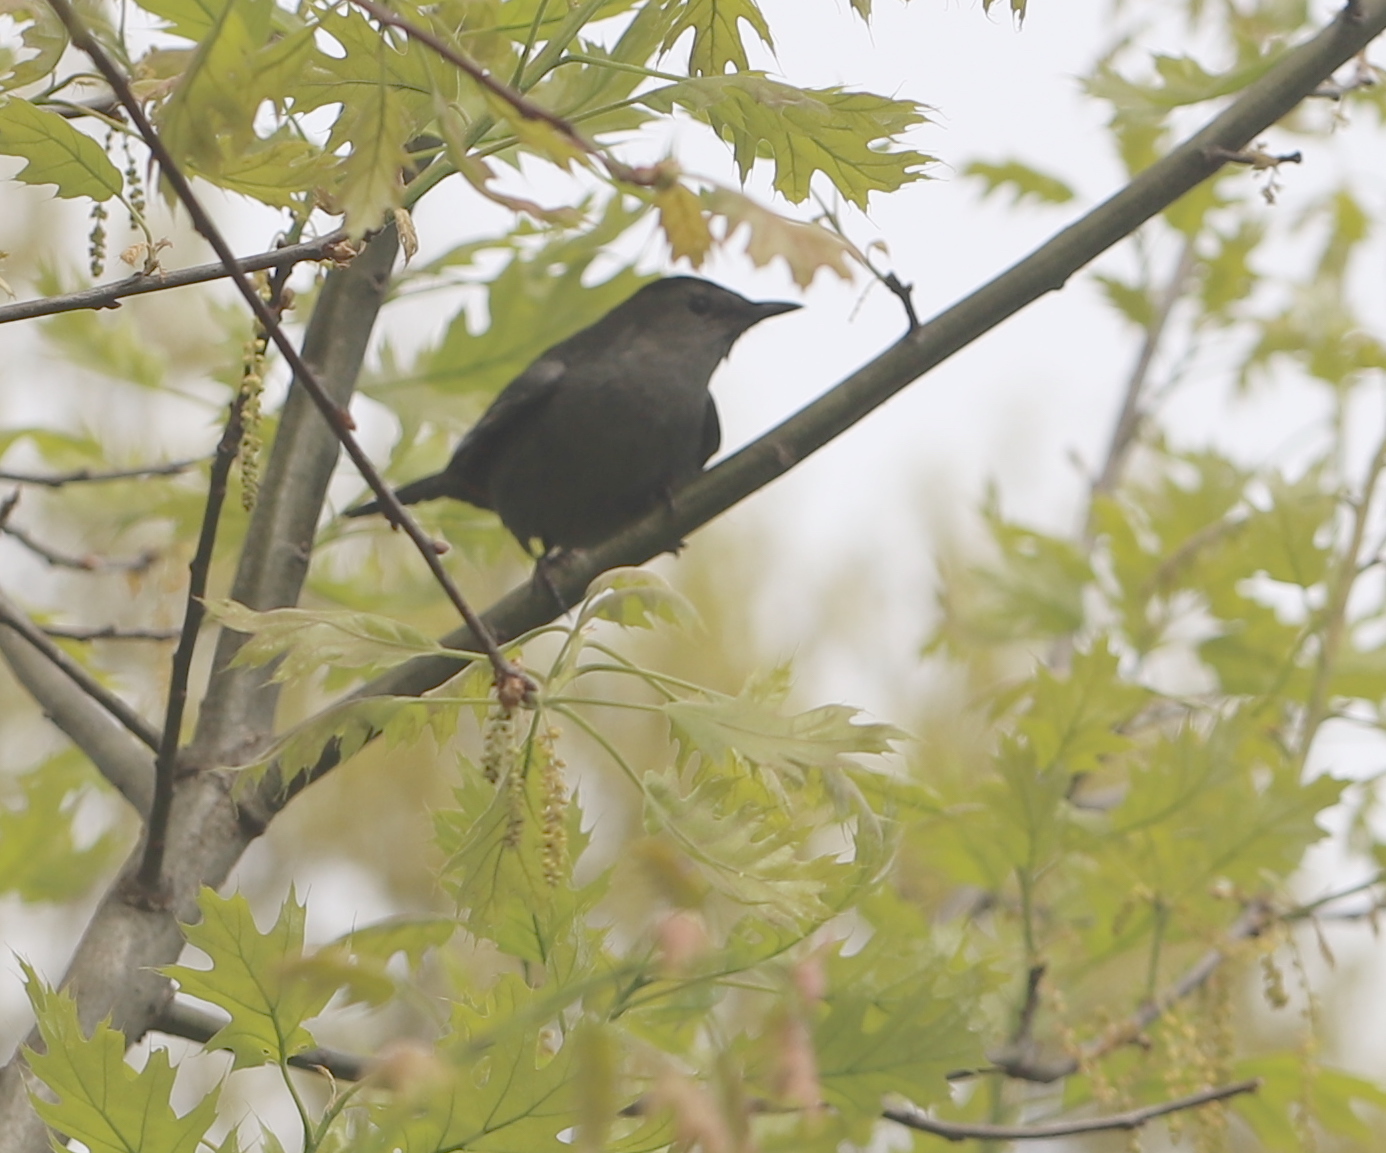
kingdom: Animalia
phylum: Chordata
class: Aves
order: Passeriformes
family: Mimidae
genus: Dumetella
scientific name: Dumetella carolinensis
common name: Gray catbird
